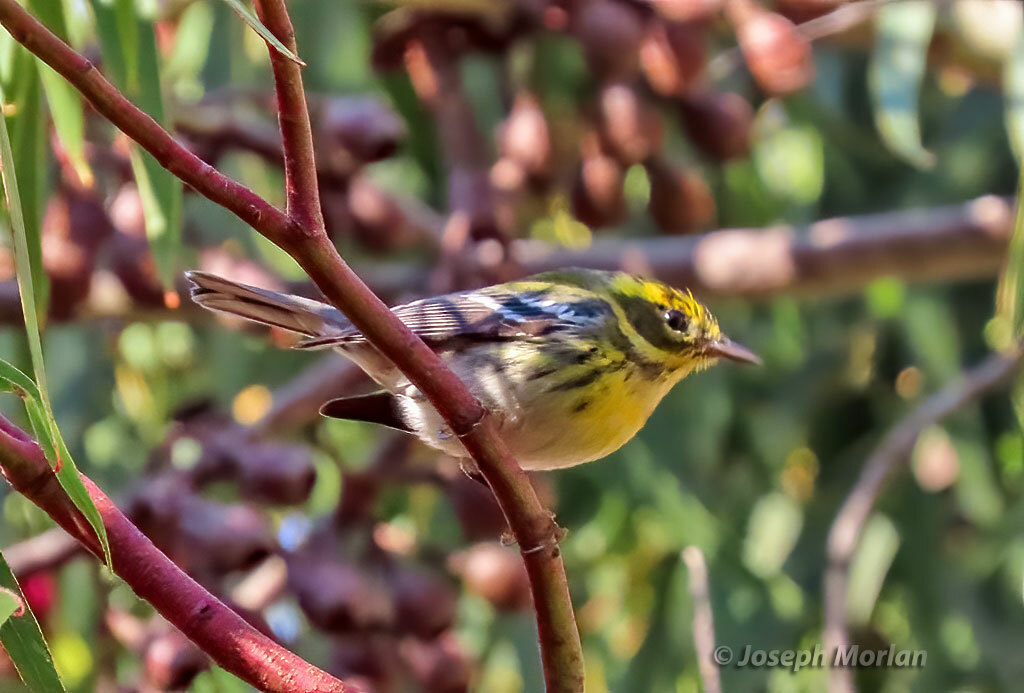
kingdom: Animalia
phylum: Chordata
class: Aves
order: Passeriformes
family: Parulidae
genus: Setophaga
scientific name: Setophaga townsendi
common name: Townsend's warbler
